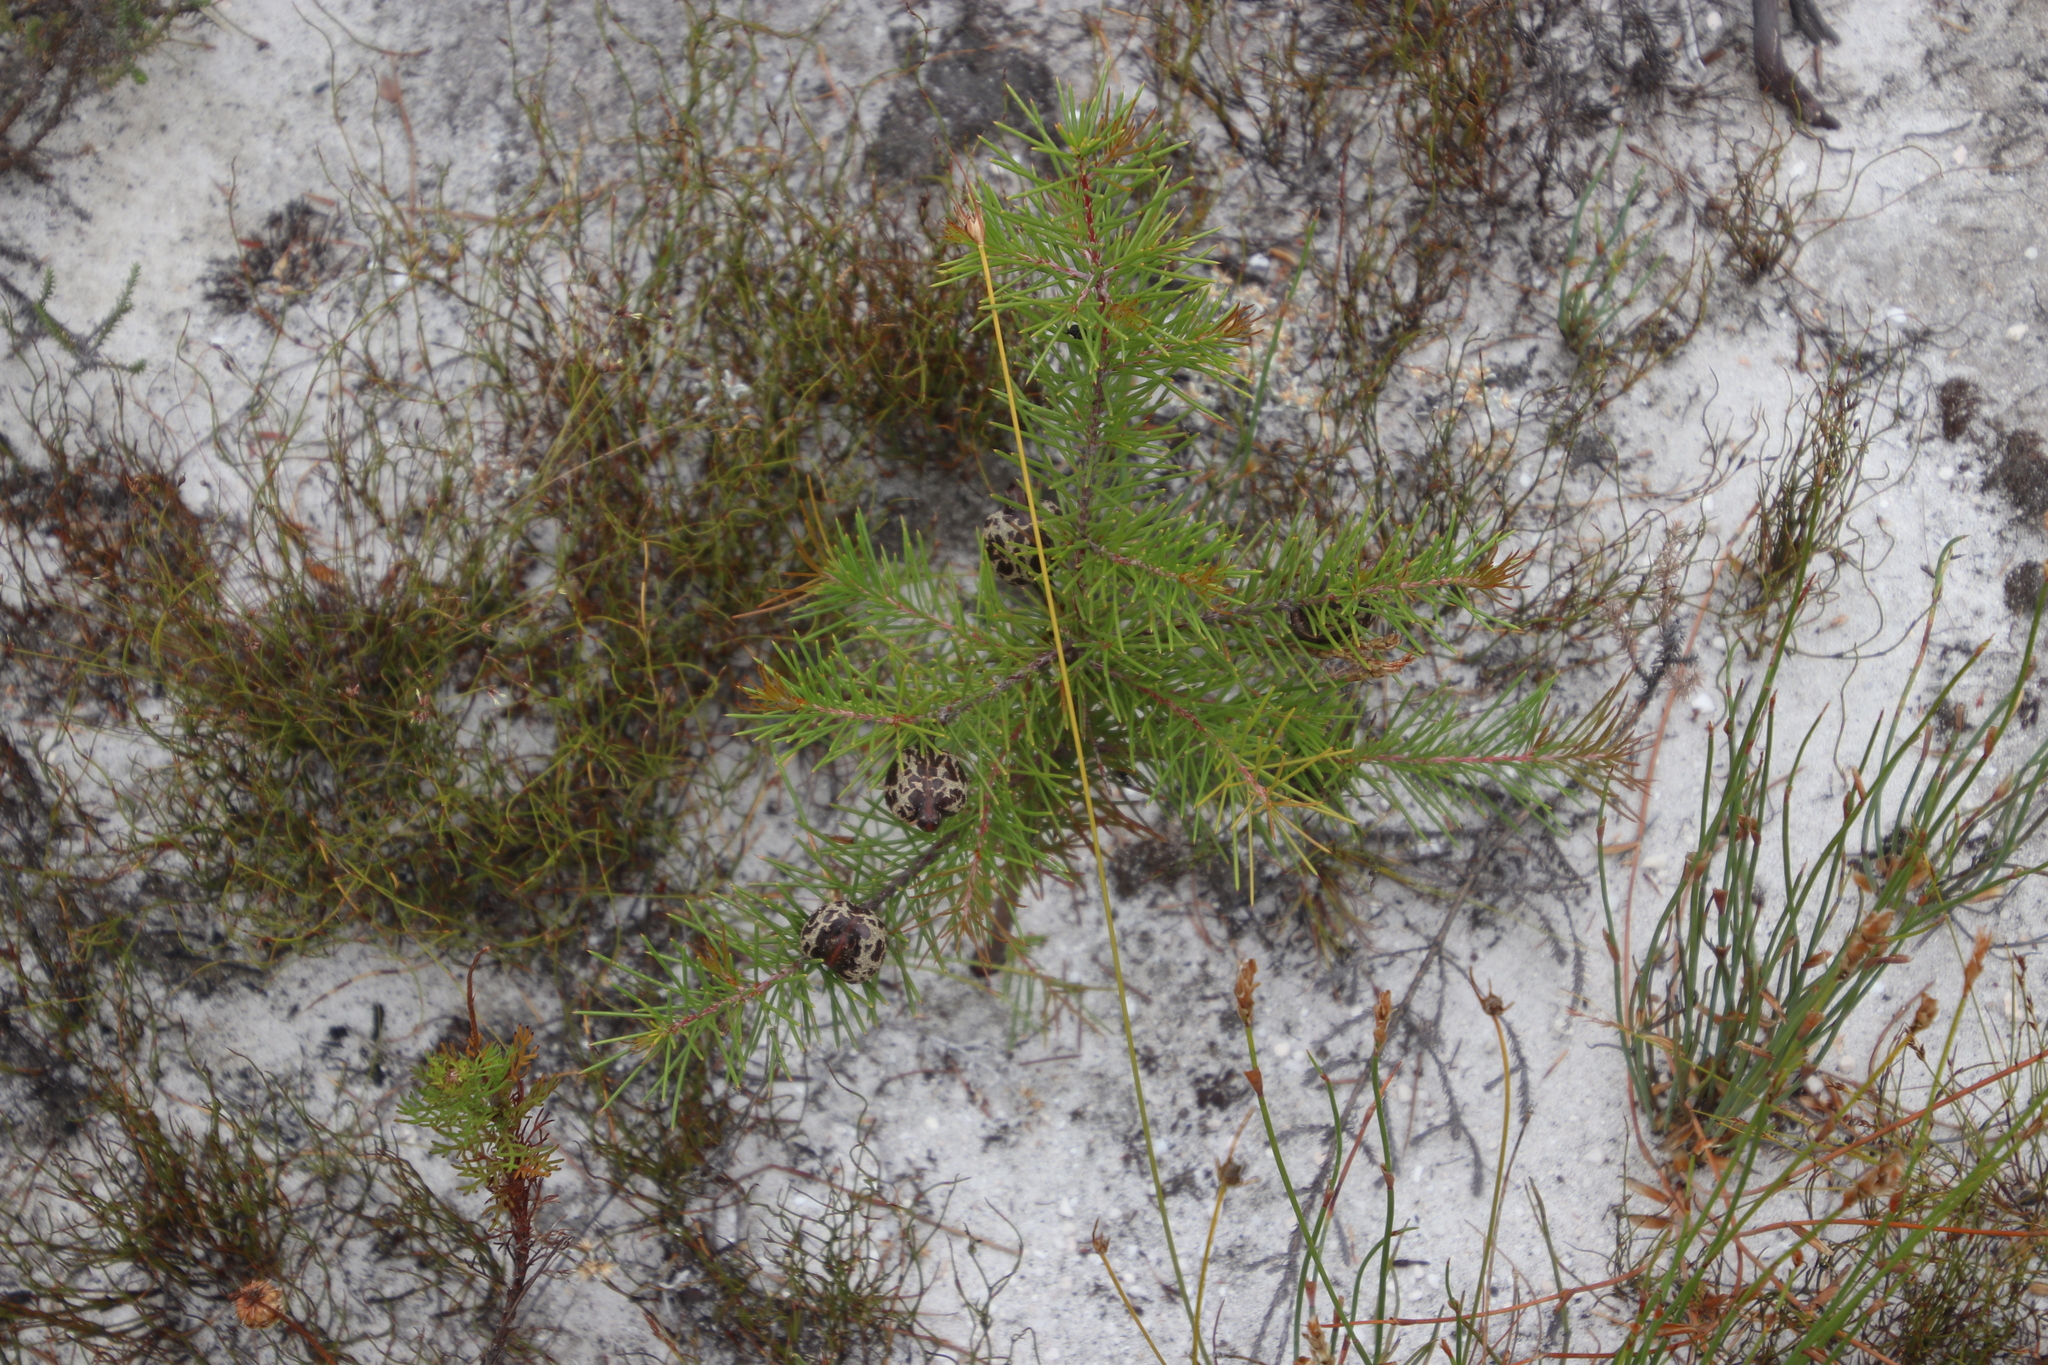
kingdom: Plantae
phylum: Tracheophyta
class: Magnoliopsida
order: Proteales
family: Proteaceae
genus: Hakea
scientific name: Hakea sericea
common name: Needle bush
